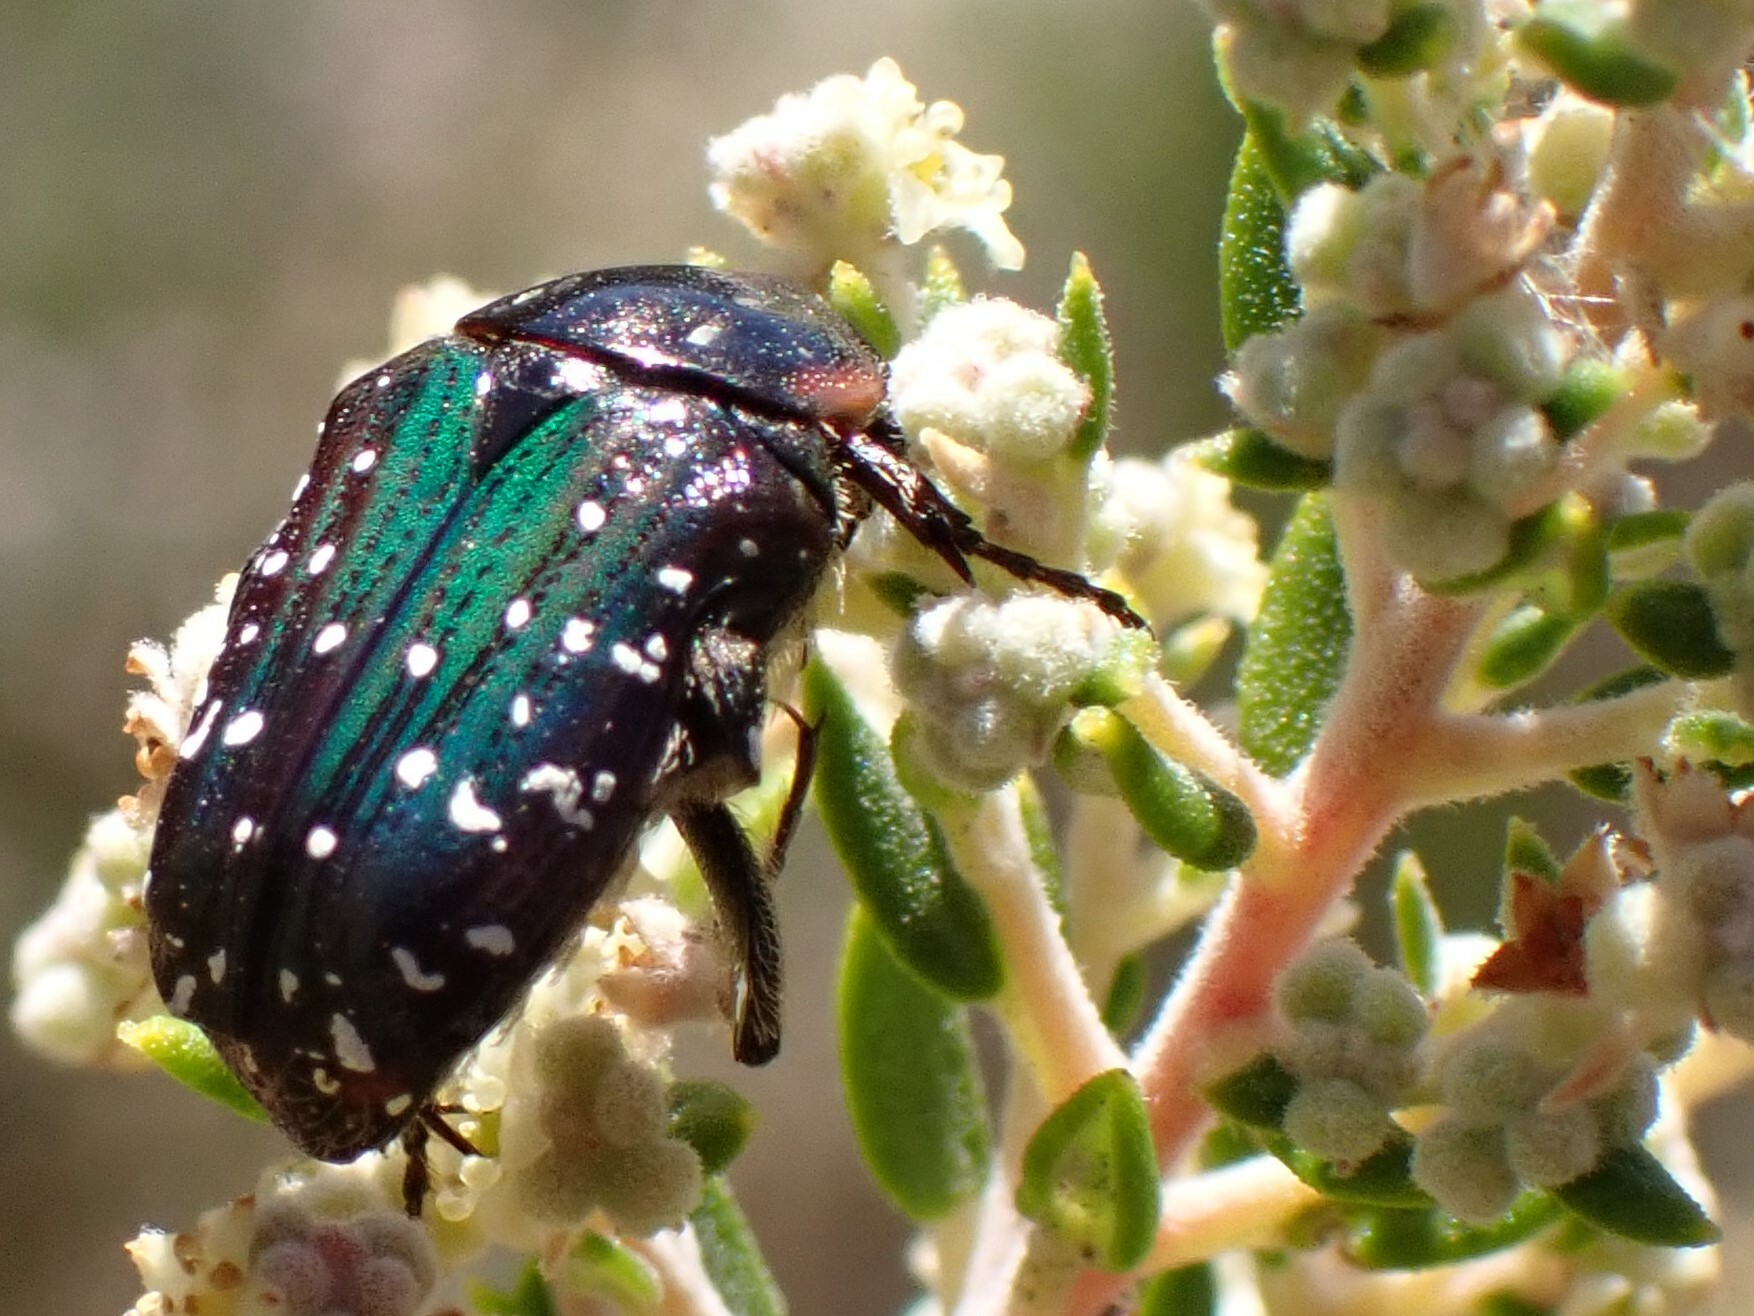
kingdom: Animalia
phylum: Arthropoda
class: Insecta
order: Coleoptera
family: Scarabaeidae
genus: Leucocelis
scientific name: Leucocelis adspersa
